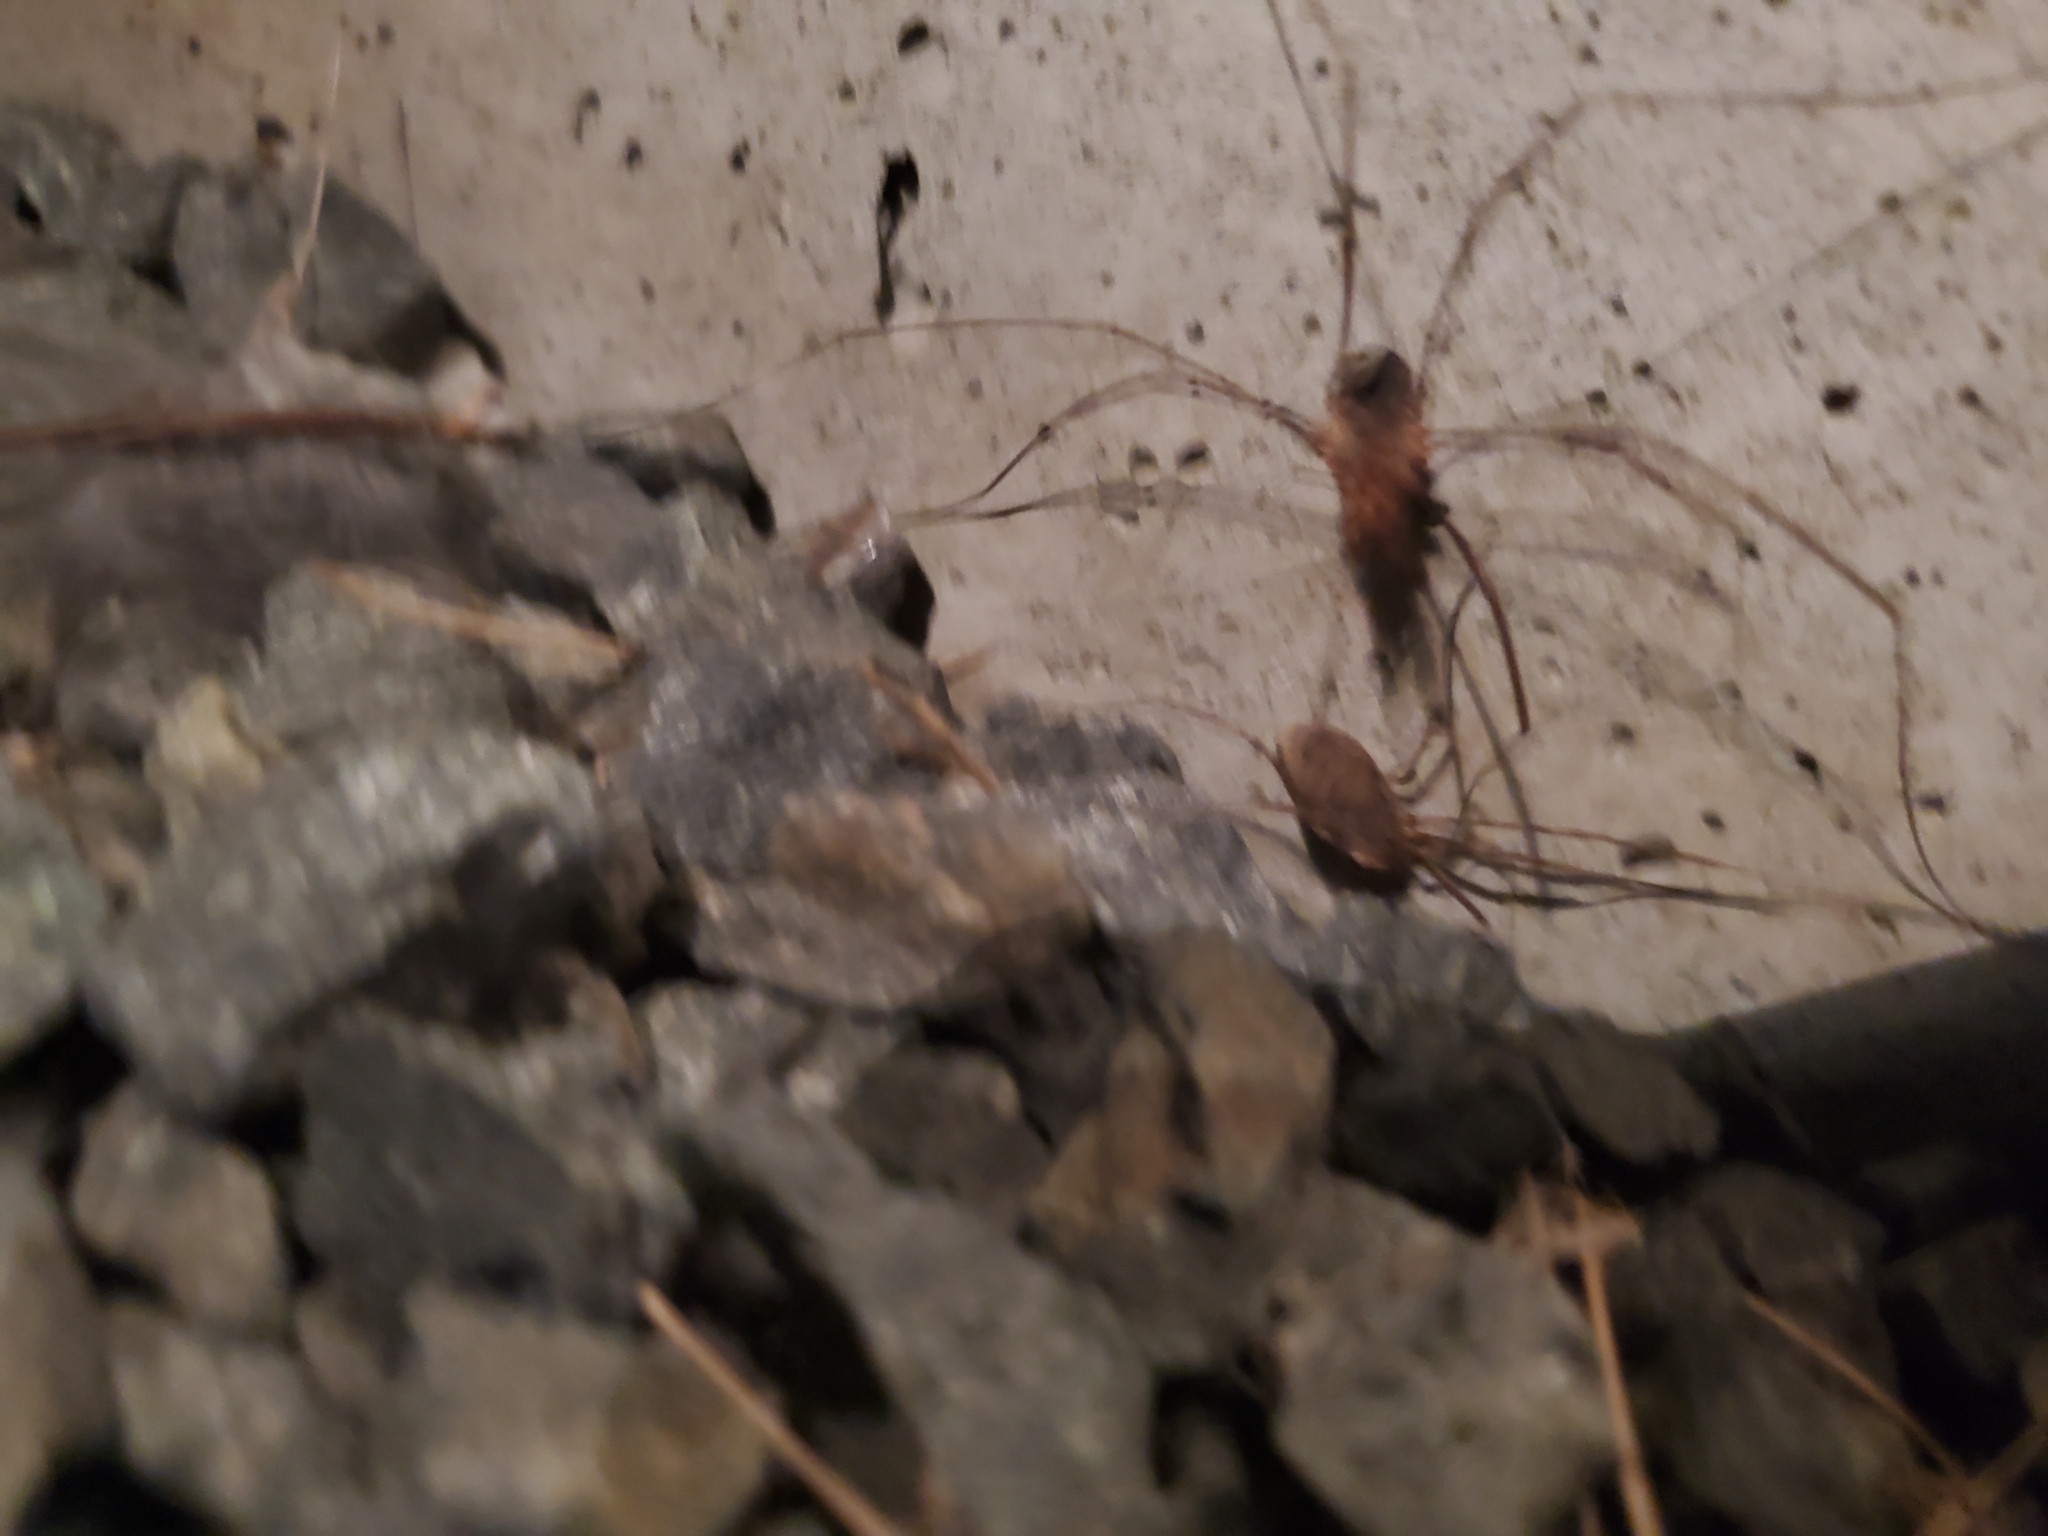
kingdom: Animalia
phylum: Arthropoda
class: Arachnida
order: Opiliones
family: Phalangiidae
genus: Phalangium
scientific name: Phalangium opilio
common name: Daddy longleg
